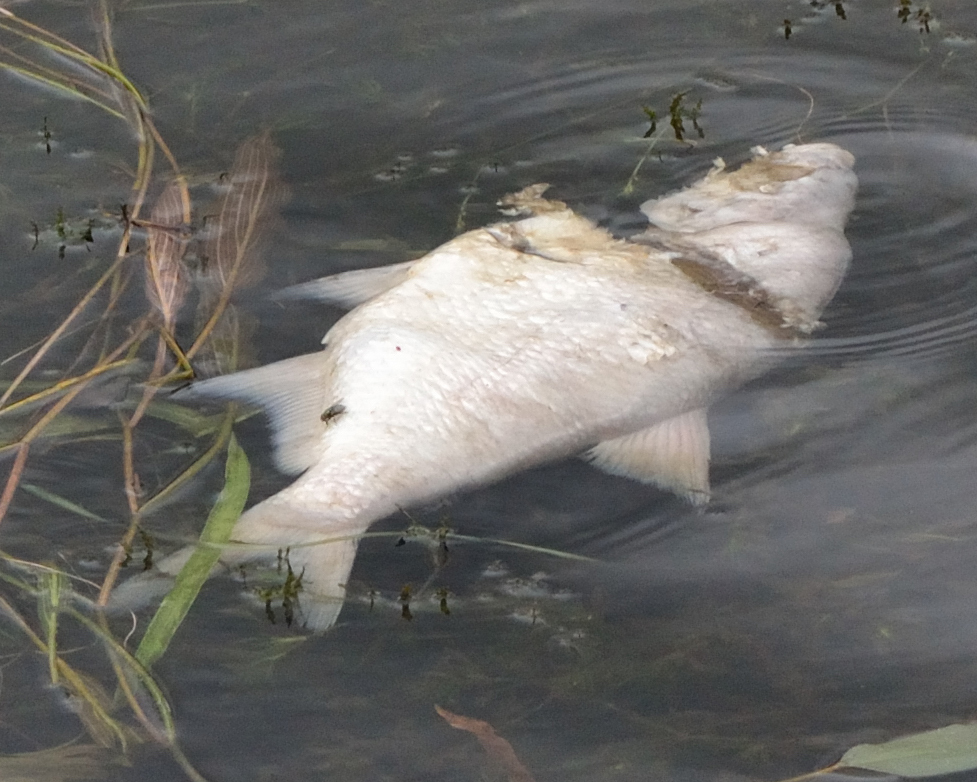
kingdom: Animalia
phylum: Chordata
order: Cypriniformes
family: Cyprinidae
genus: Abramis
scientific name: Abramis brama
